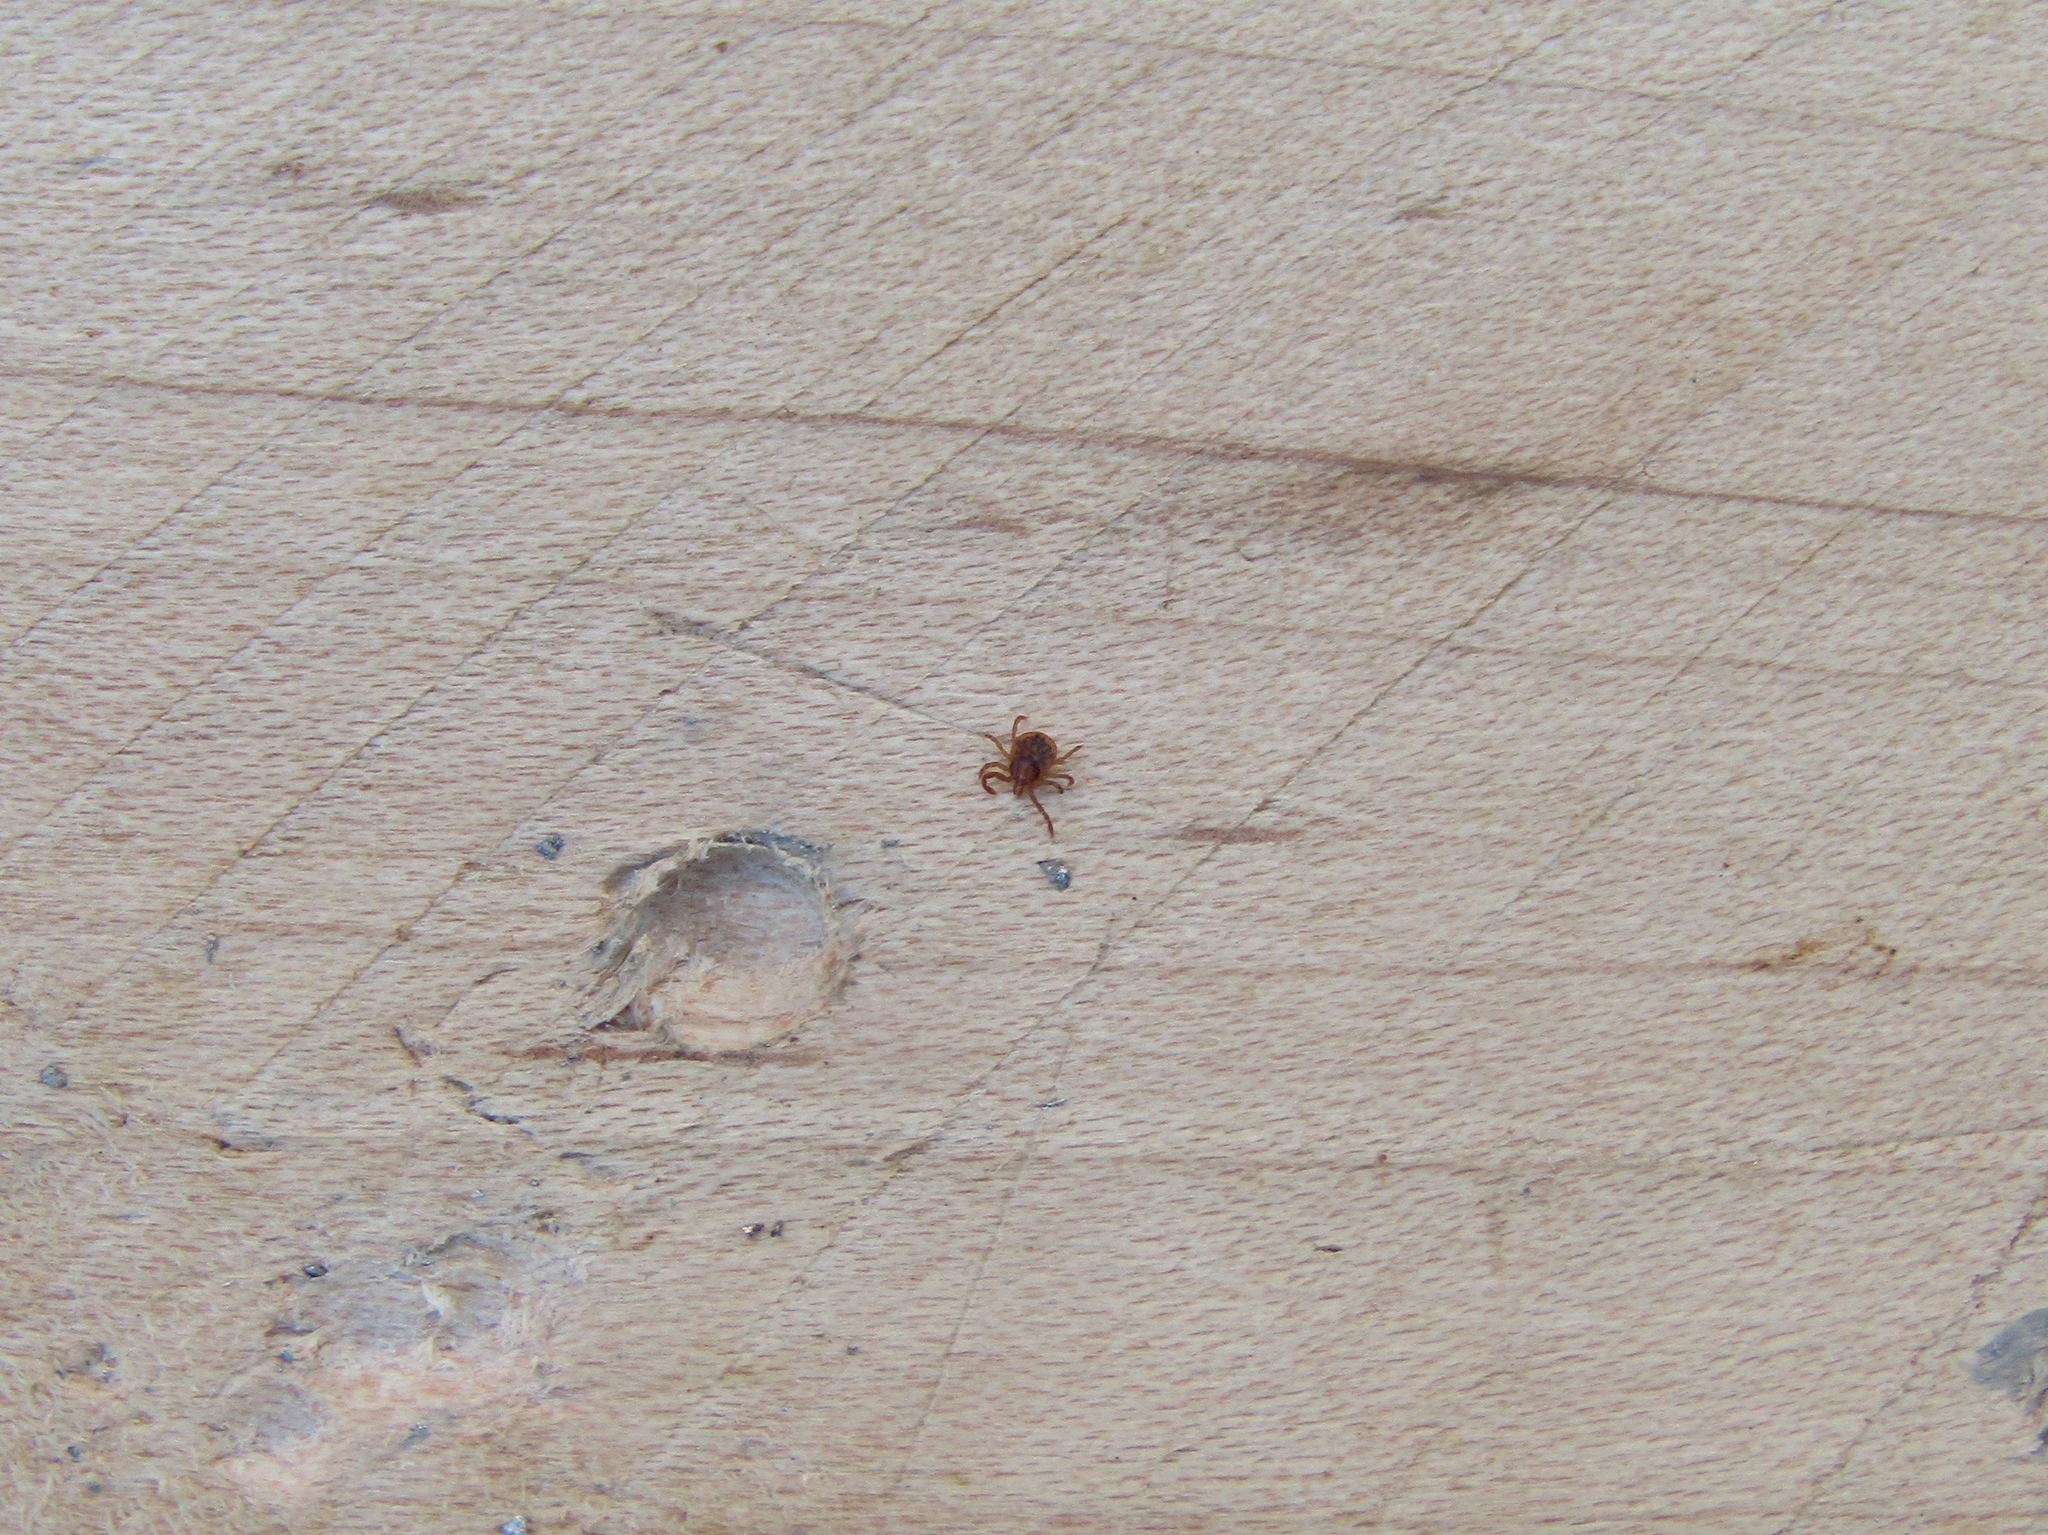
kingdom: Animalia
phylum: Arthropoda
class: Arachnida
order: Ixodida
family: Ixodidae
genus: Amblyomma
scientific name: Amblyomma americanum
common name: Lone star tick
